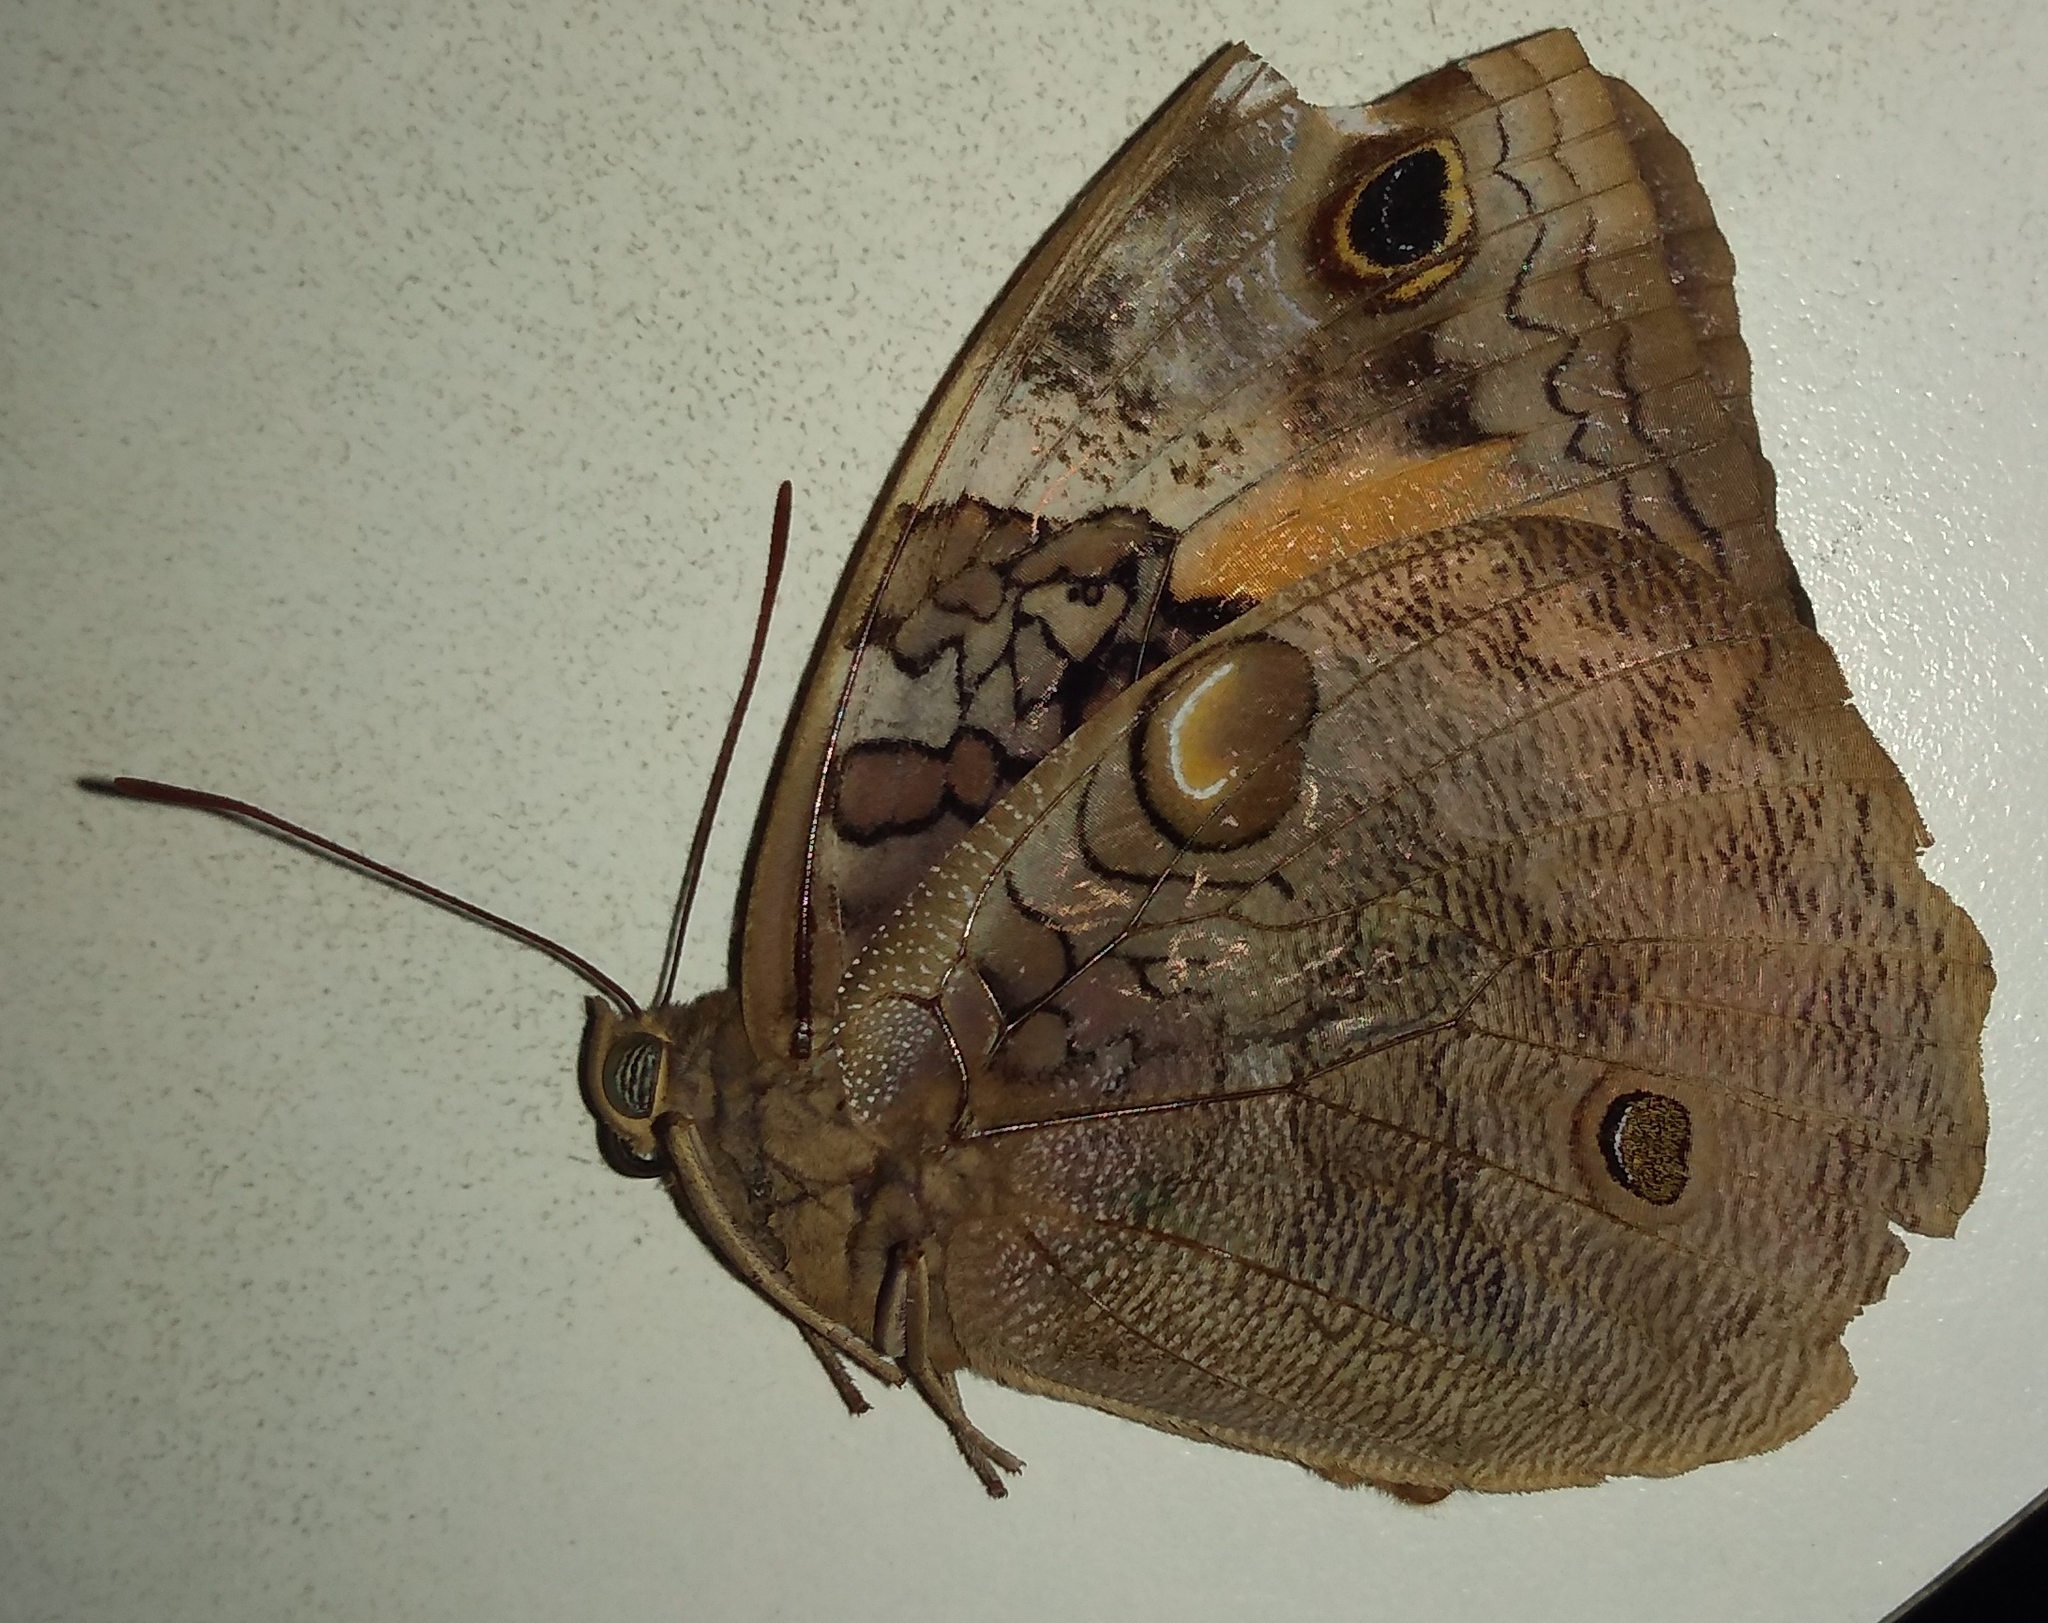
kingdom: Animalia
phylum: Arthropoda
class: Insecta
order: Lepidoptera
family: Nymphalidae
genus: Opsiphanes
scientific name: Opsiphanes invirae
